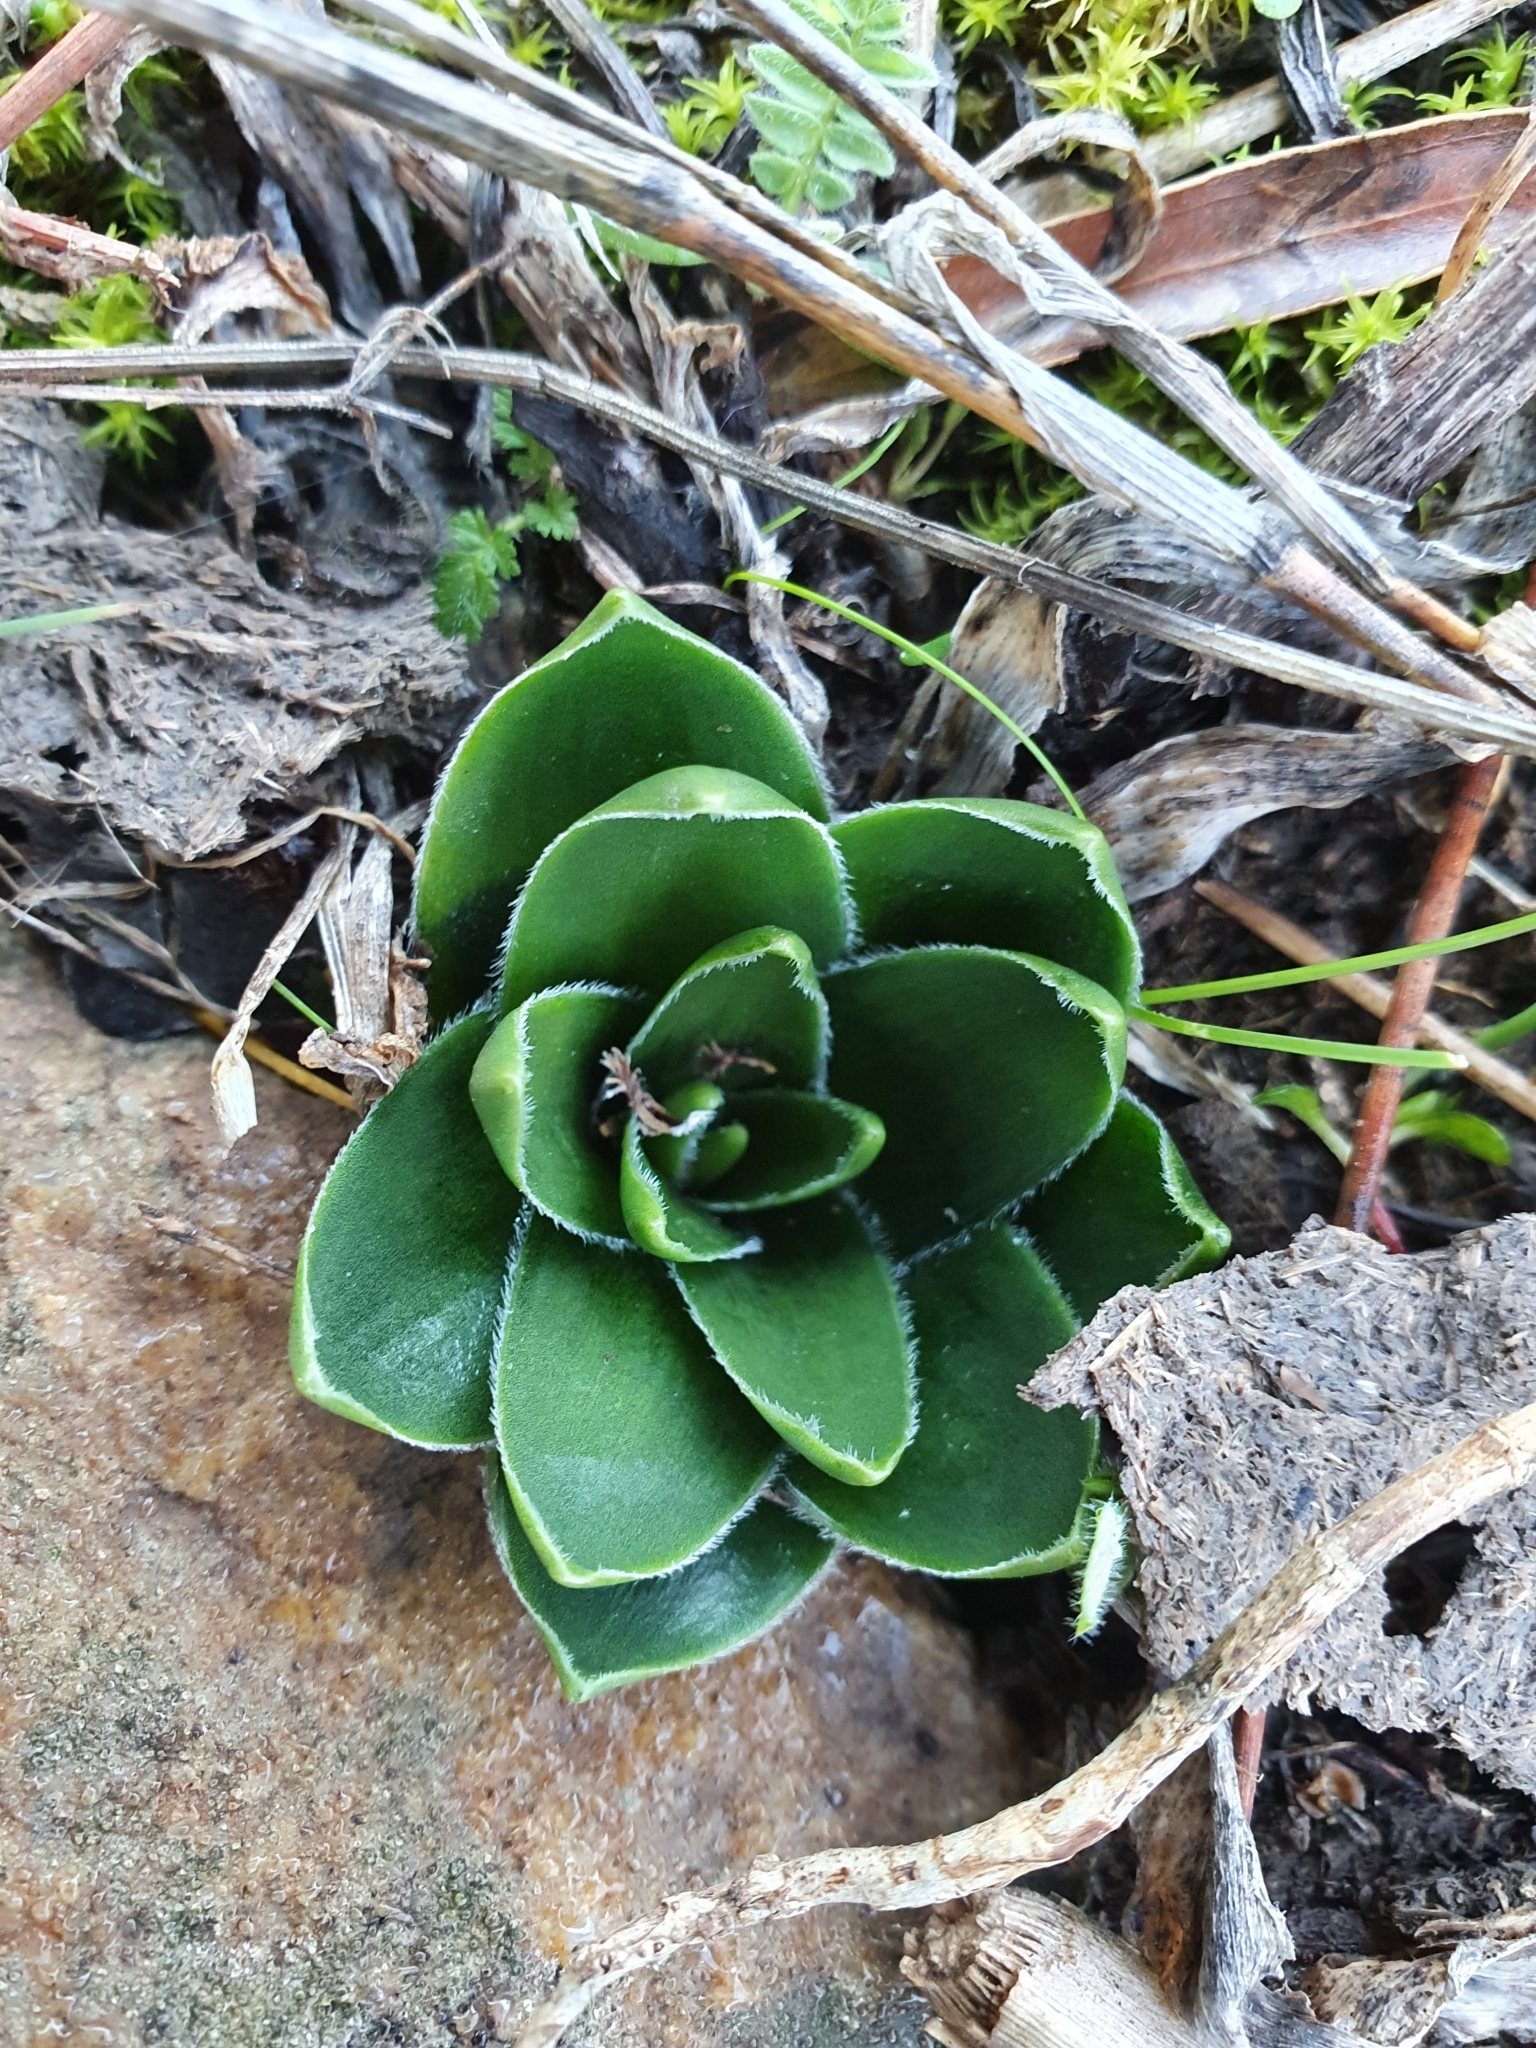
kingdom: Plantae
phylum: Tracheophyta
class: Liliopsida
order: Asparagales
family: Asparagaceae
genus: Scilla
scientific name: Scilla peruviana
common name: Portuguese squill
